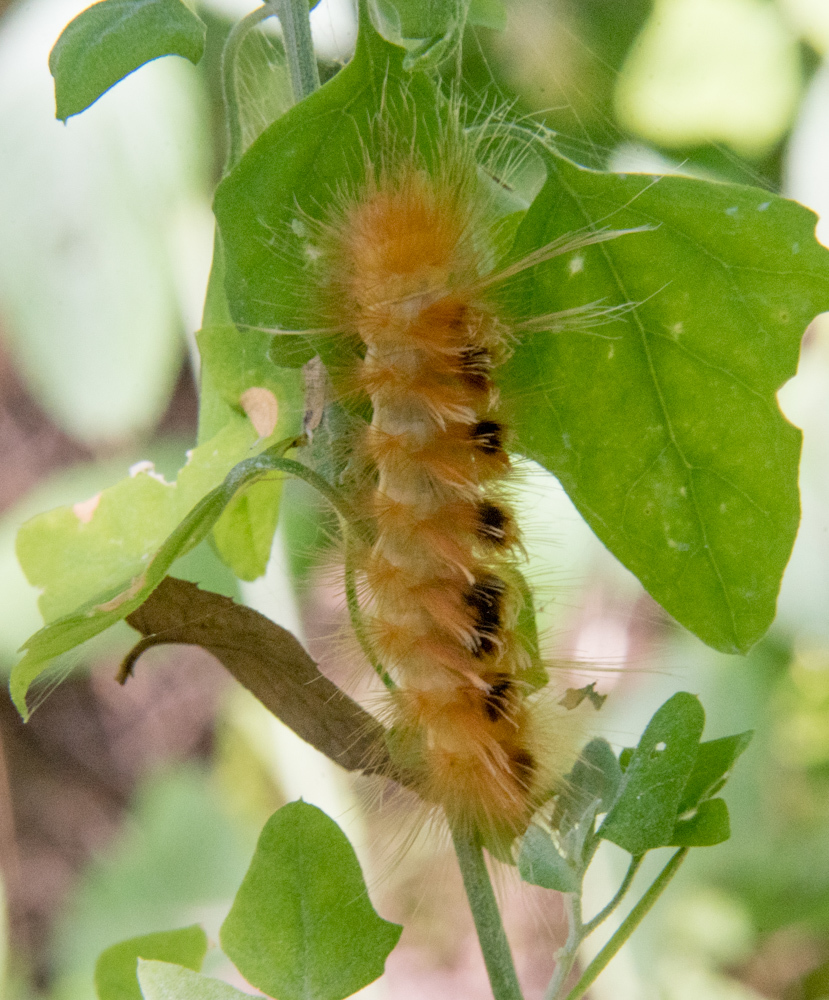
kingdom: Animalia
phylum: Arthropoda
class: Insecta
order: Lepidoptera
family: Erebidae
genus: Pygarctia
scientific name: Pygarctia roseicapitis
